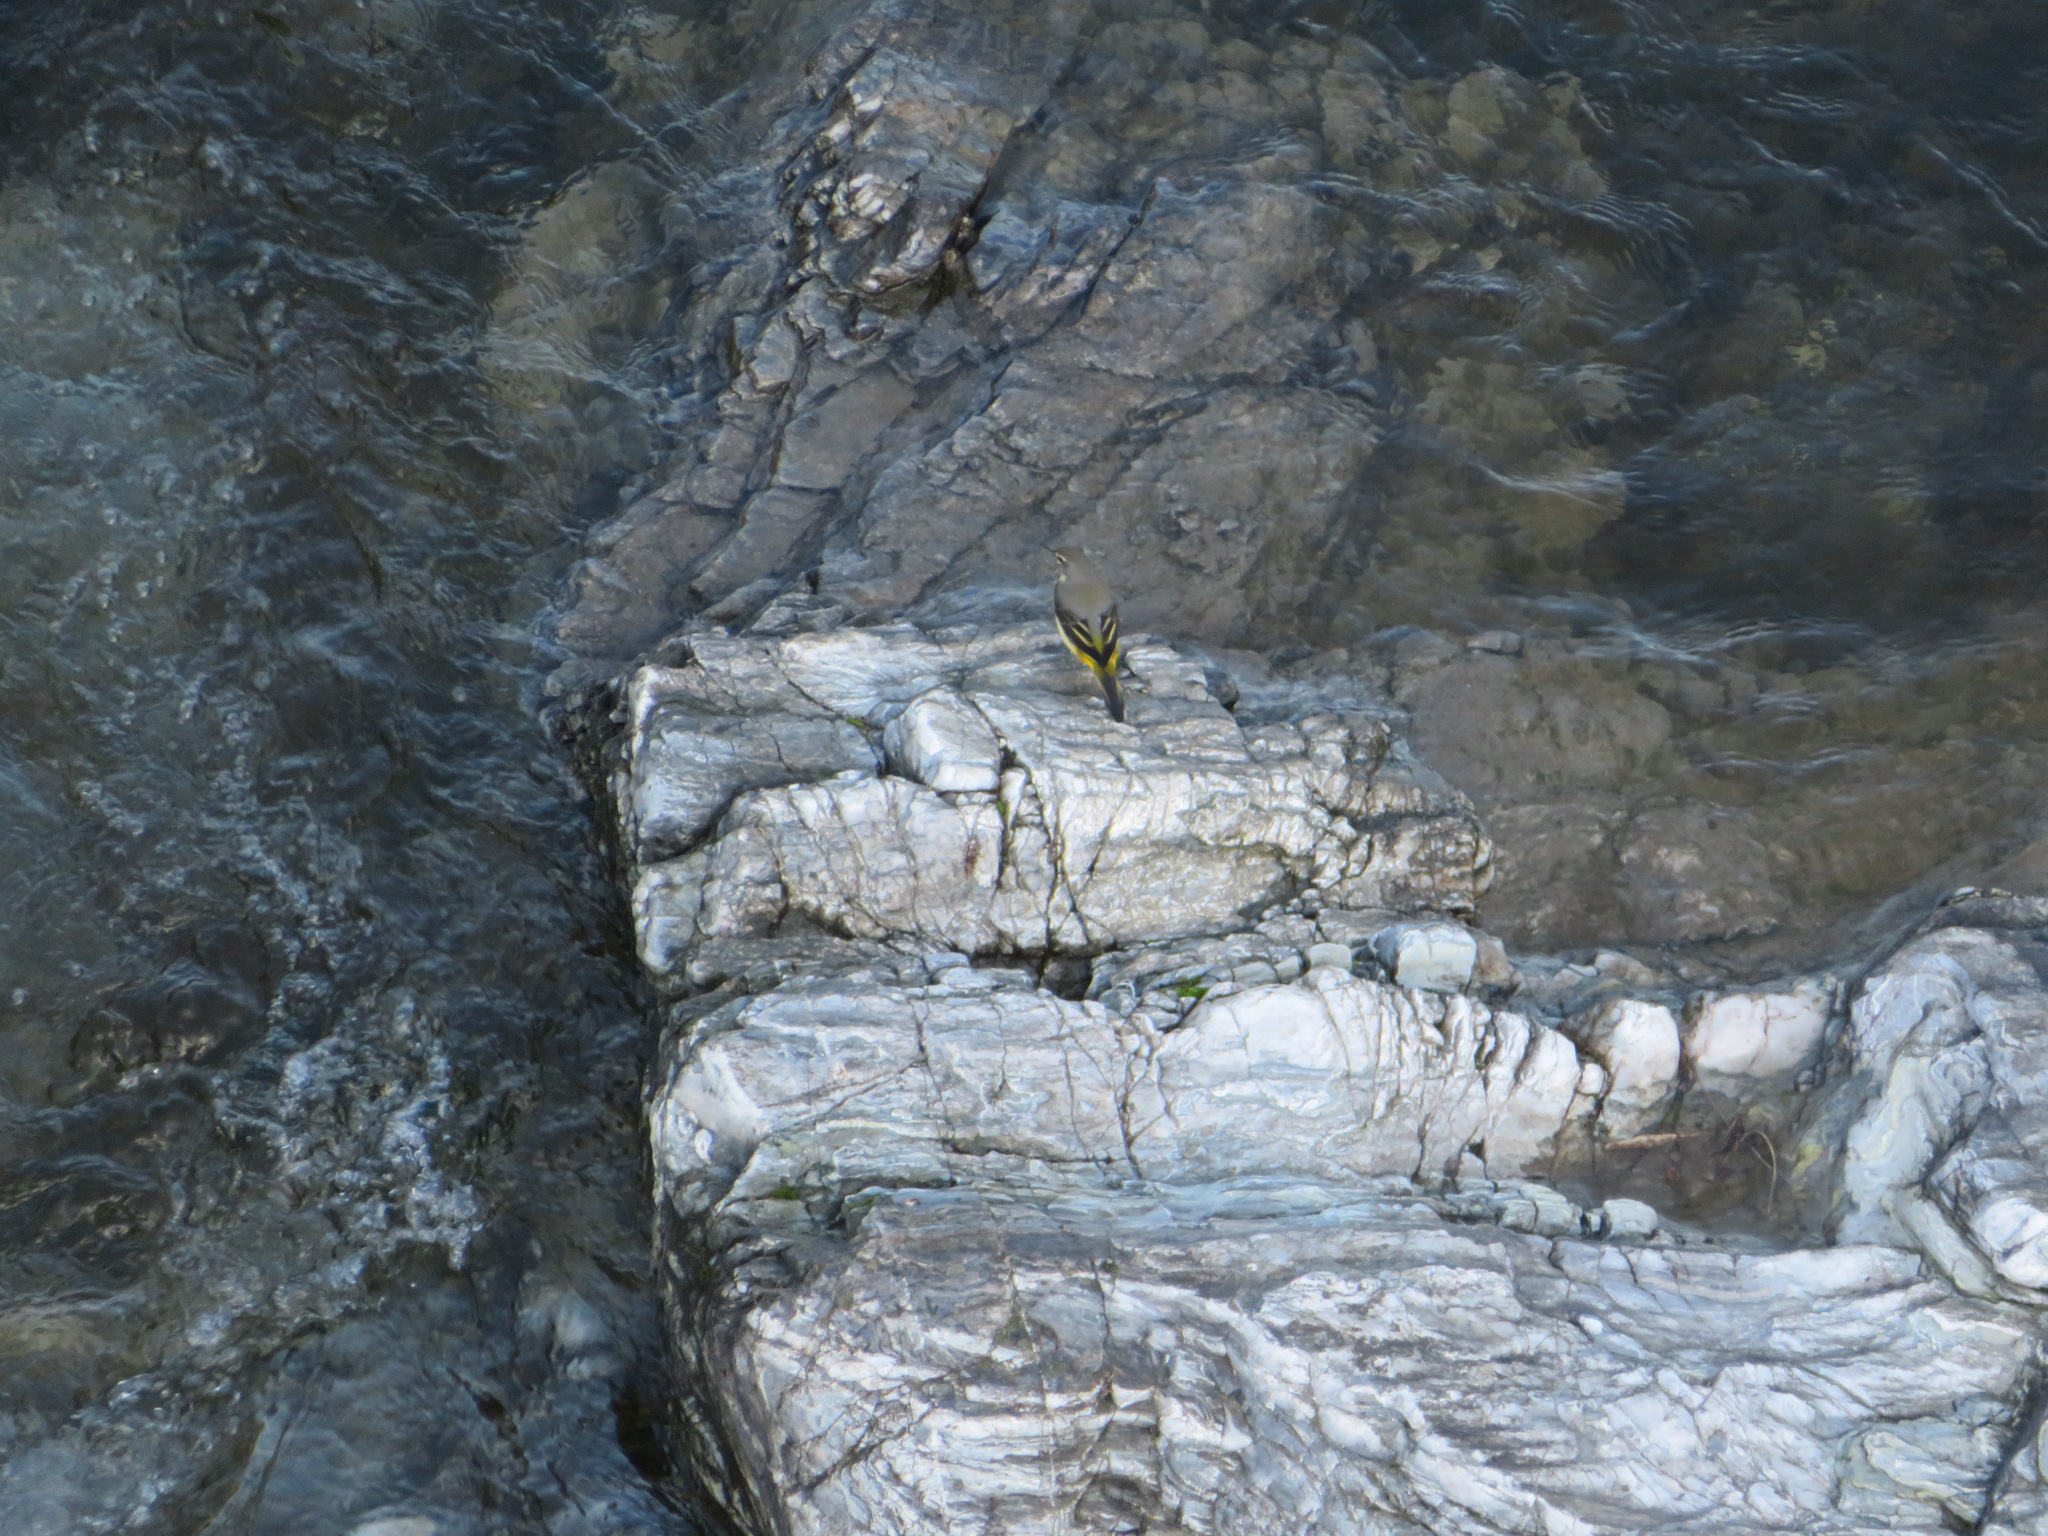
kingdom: Animalia
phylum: Chordata
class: Aves
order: Passeriformes
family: Motacillidae
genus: Motacilla
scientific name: Motacilla cinerea
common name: Grey wagtail
